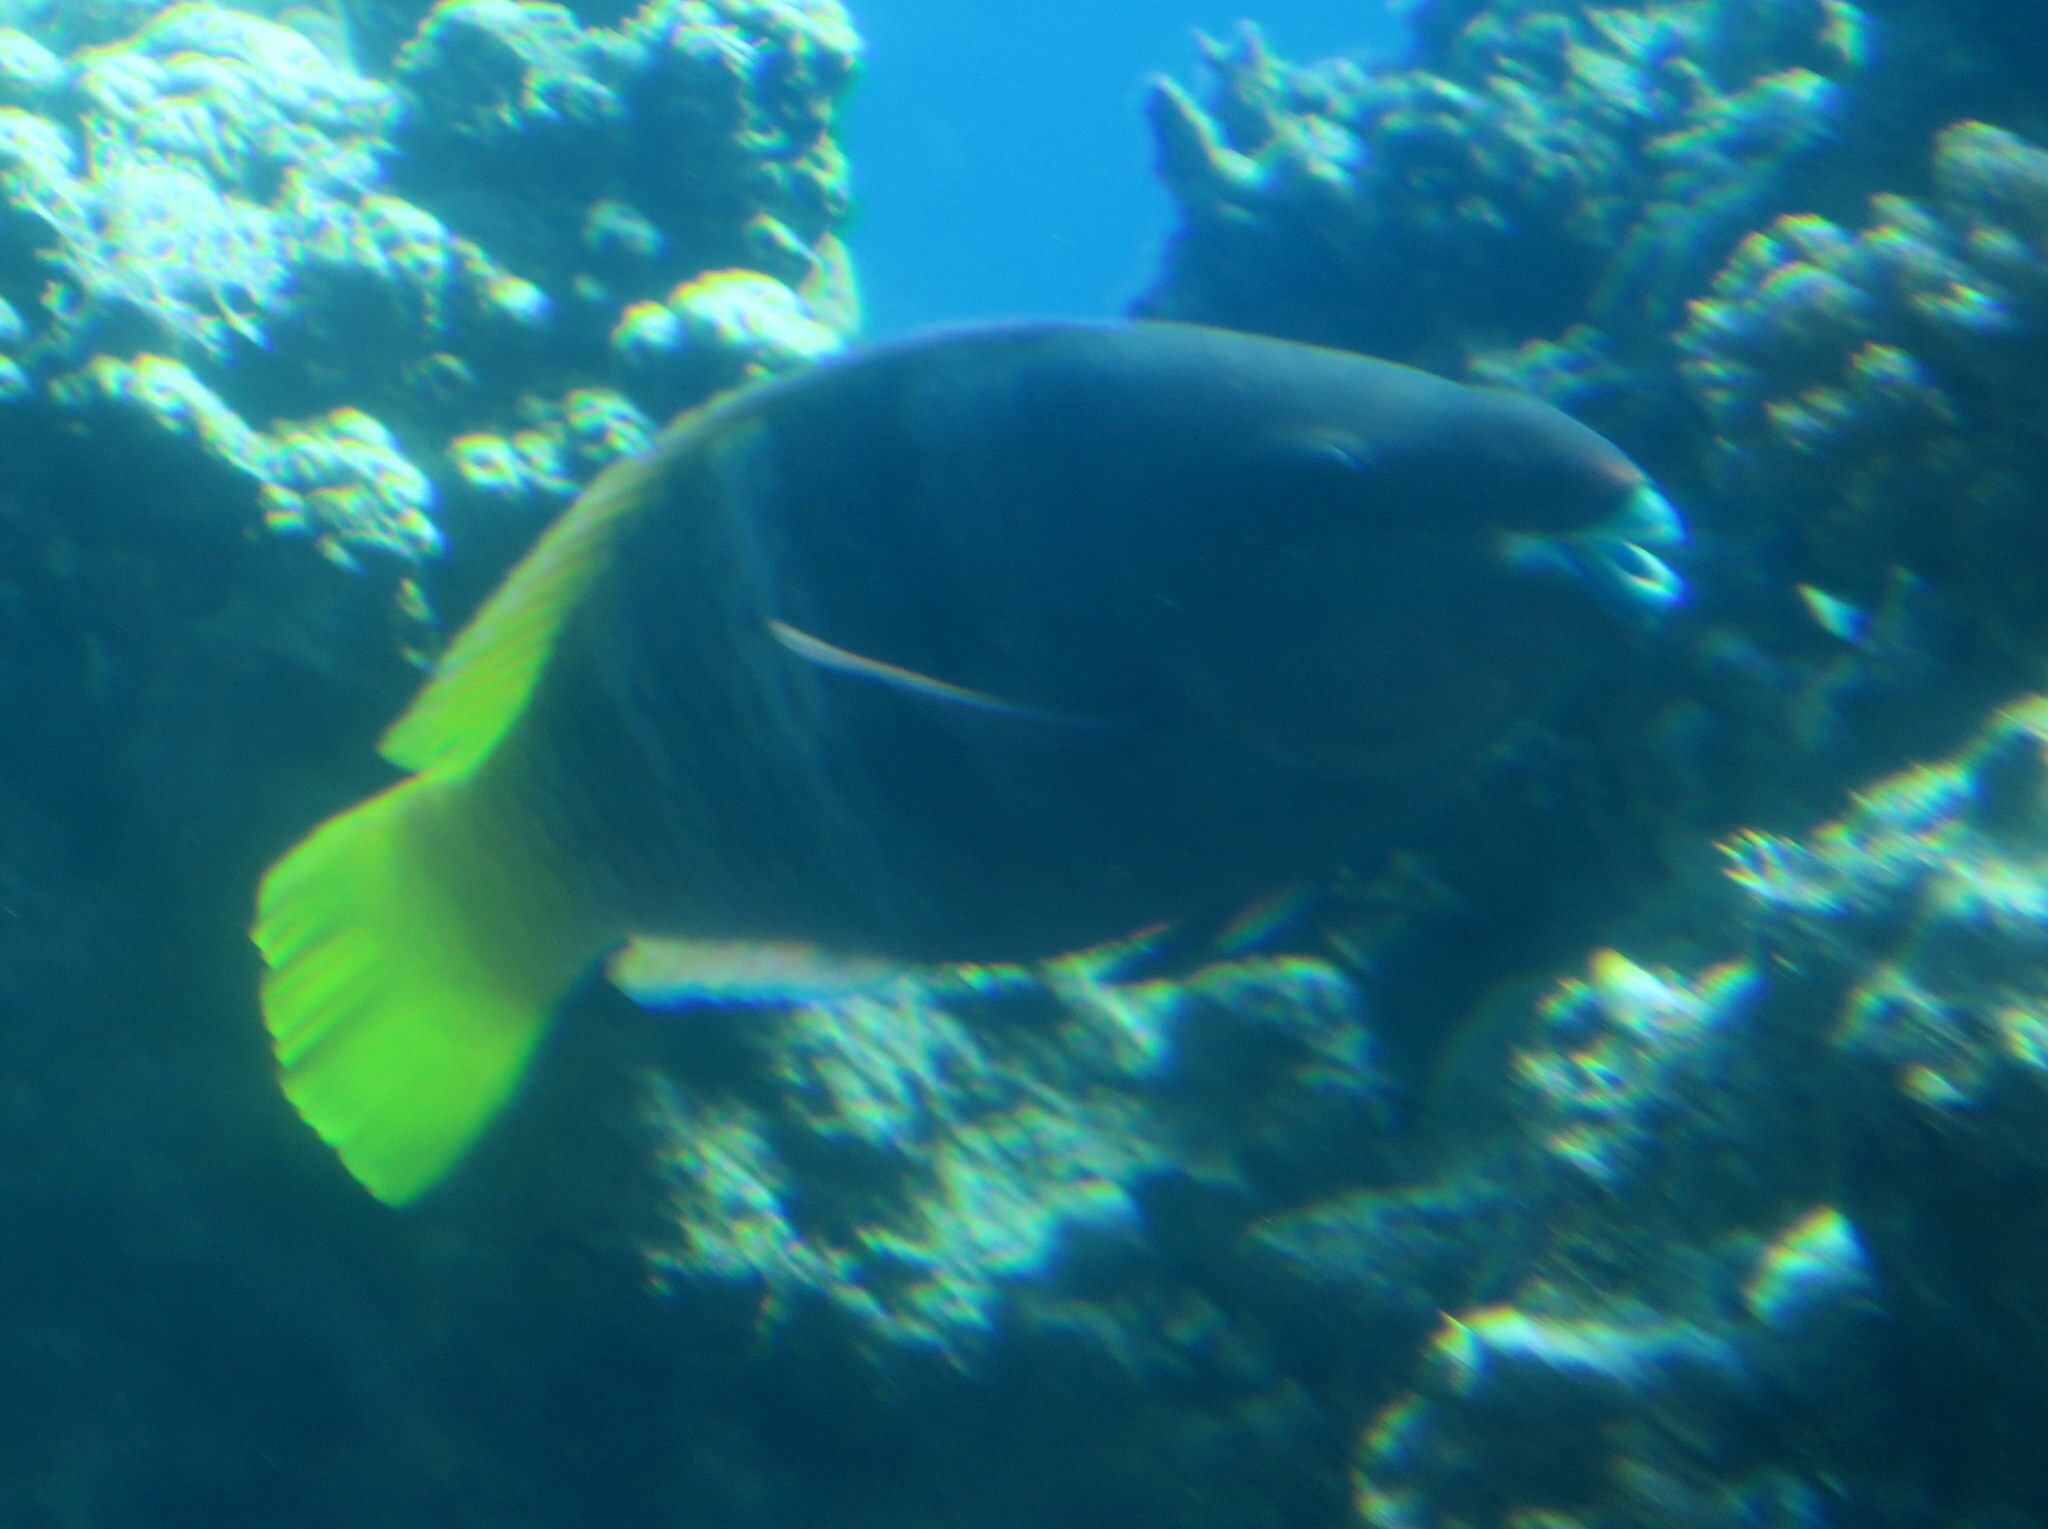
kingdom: Animalia
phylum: Chordata
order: Perciformes
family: Scaridae
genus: Scarus
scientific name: Scarus ferrugineus
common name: Rusty parrotfish
